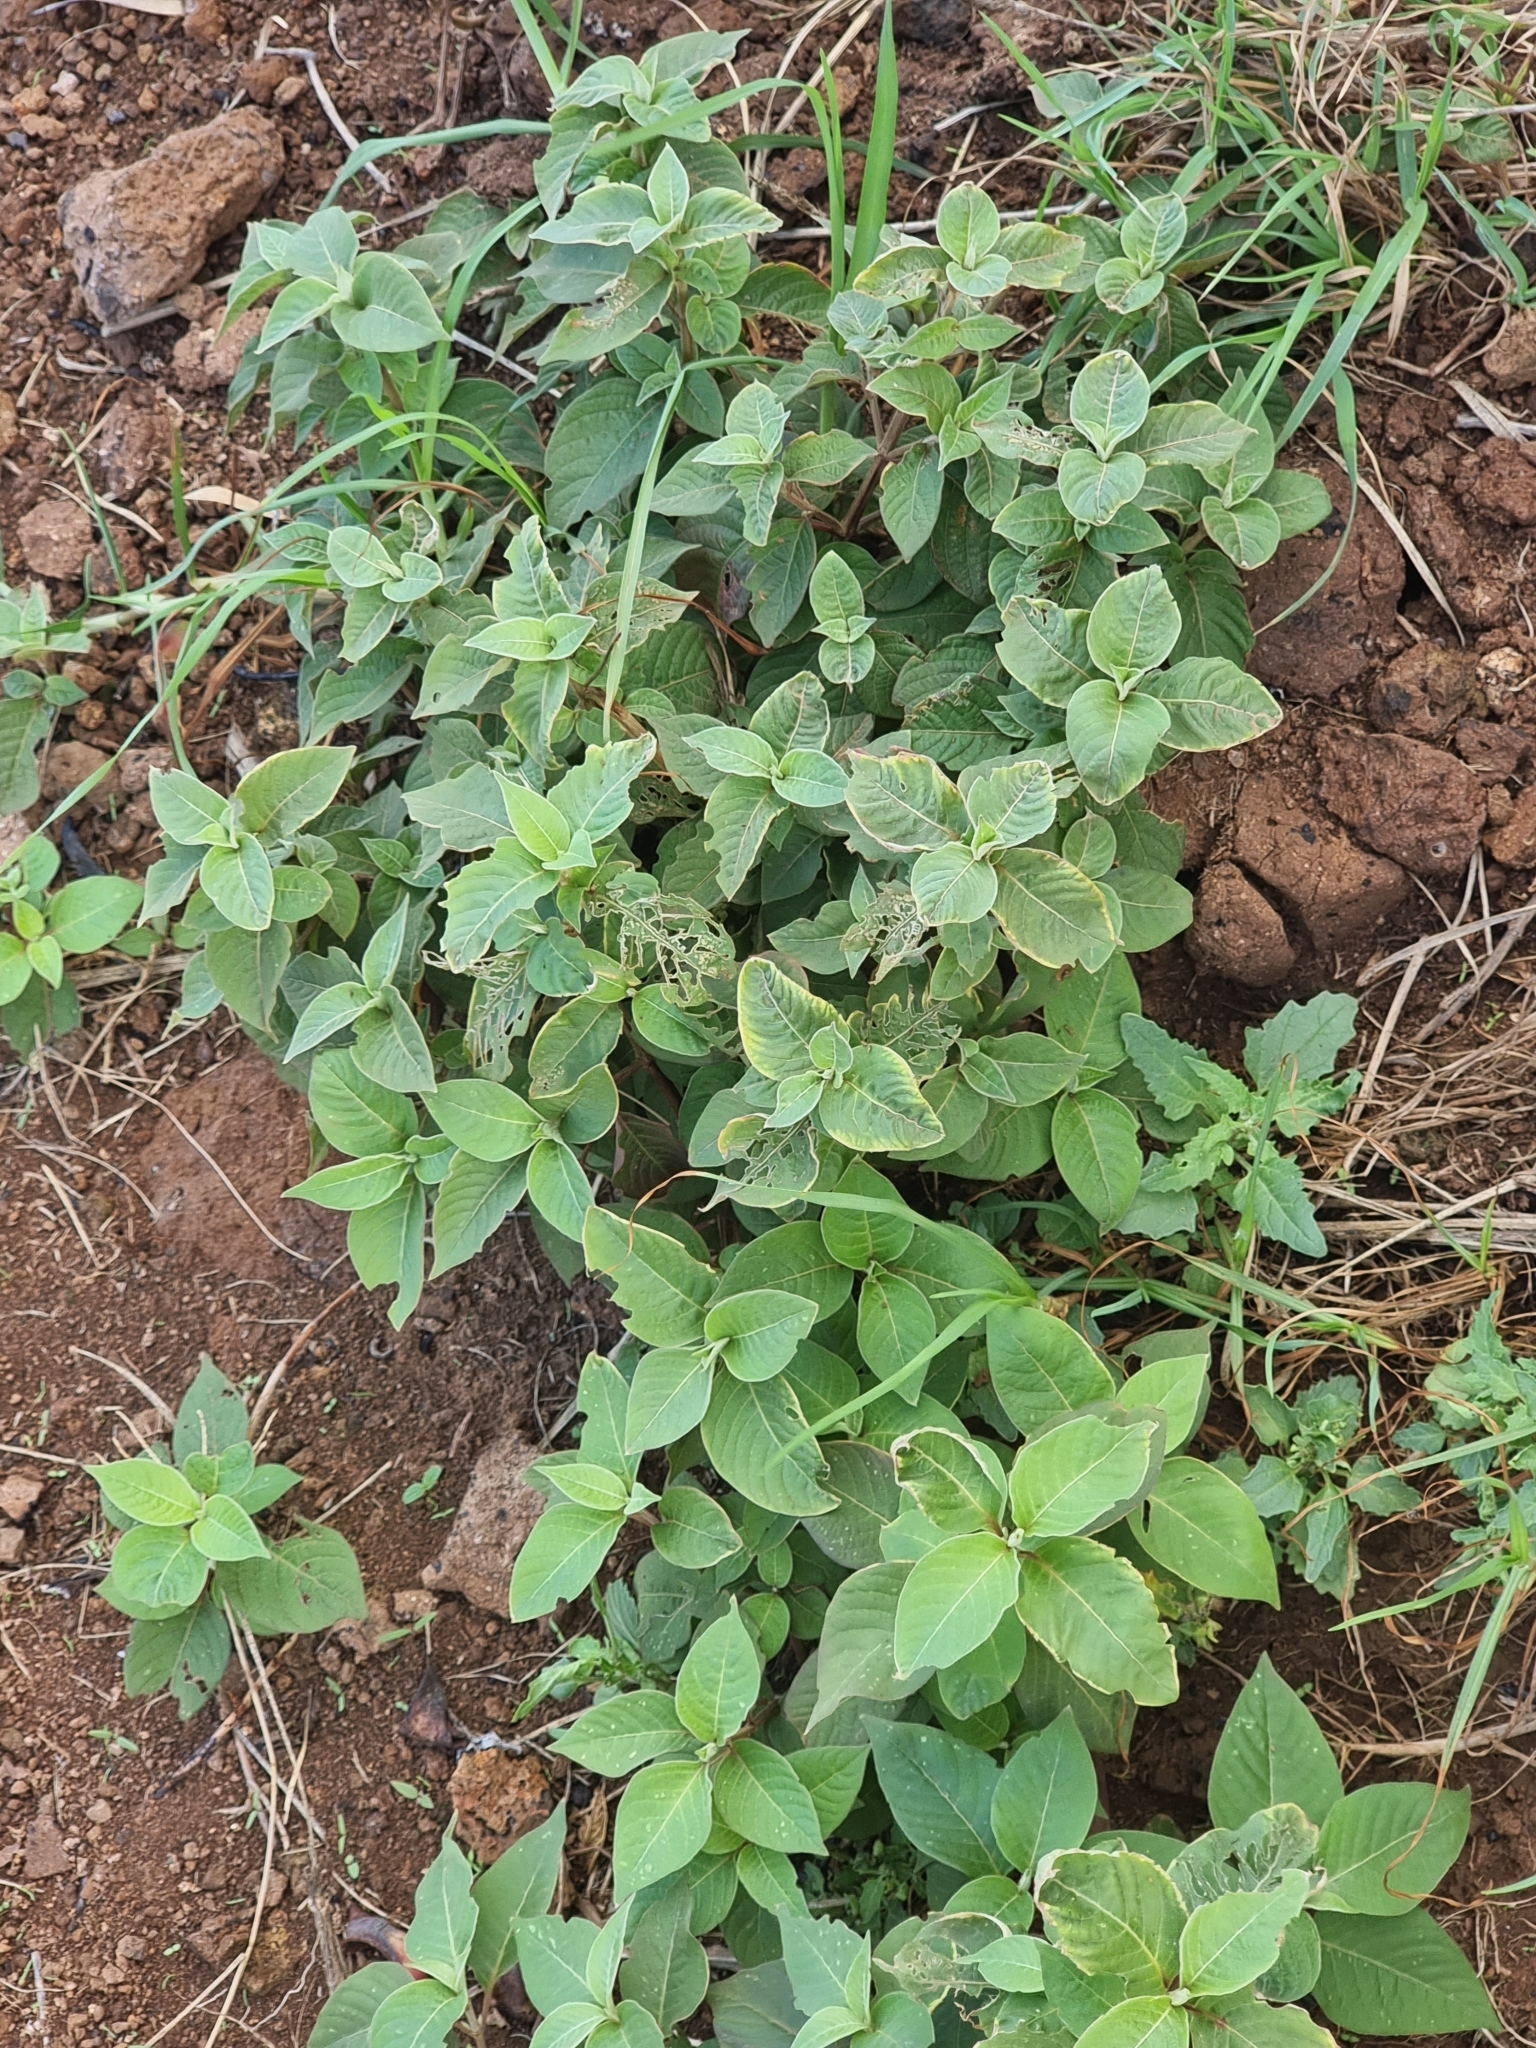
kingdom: Plantae
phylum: Tracheophyta
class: Magnoliopsida
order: Caryophyllales
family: Amaranthaceae
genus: Achyranthes
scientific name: Achyranthes aspera
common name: Devil's horsewhip
